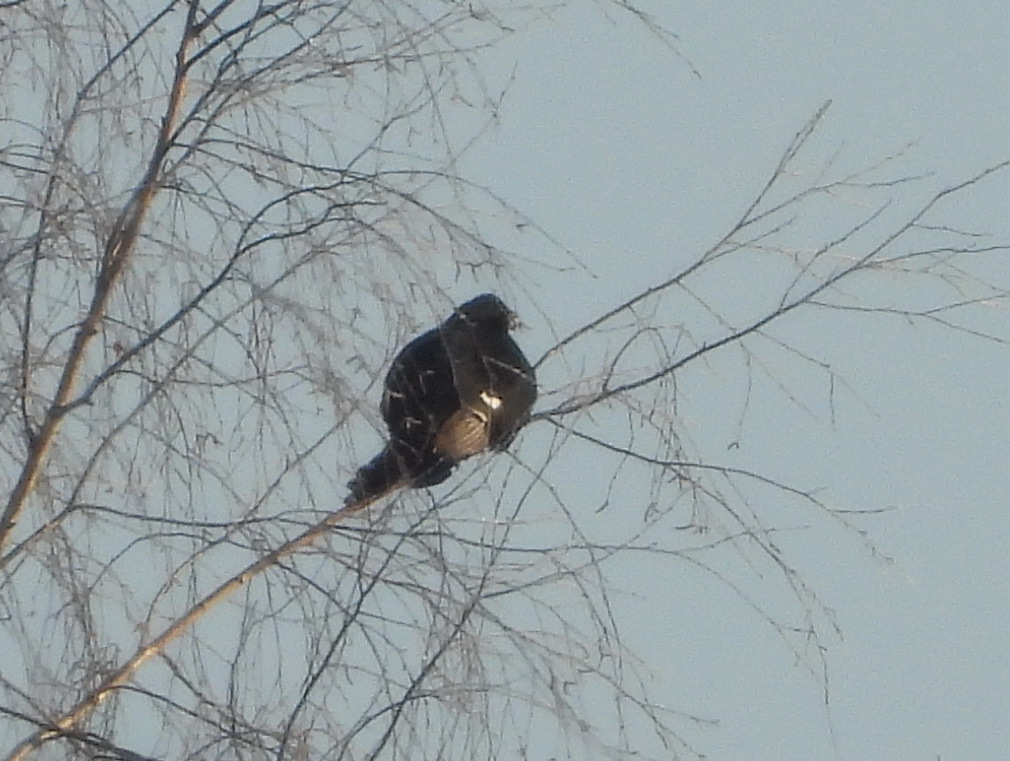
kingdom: Animalia
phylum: Chordata
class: Aves
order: Galliformes
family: Phasianidae
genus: Tetrao
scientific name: Tetrao urogallus
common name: Western capercaillie
